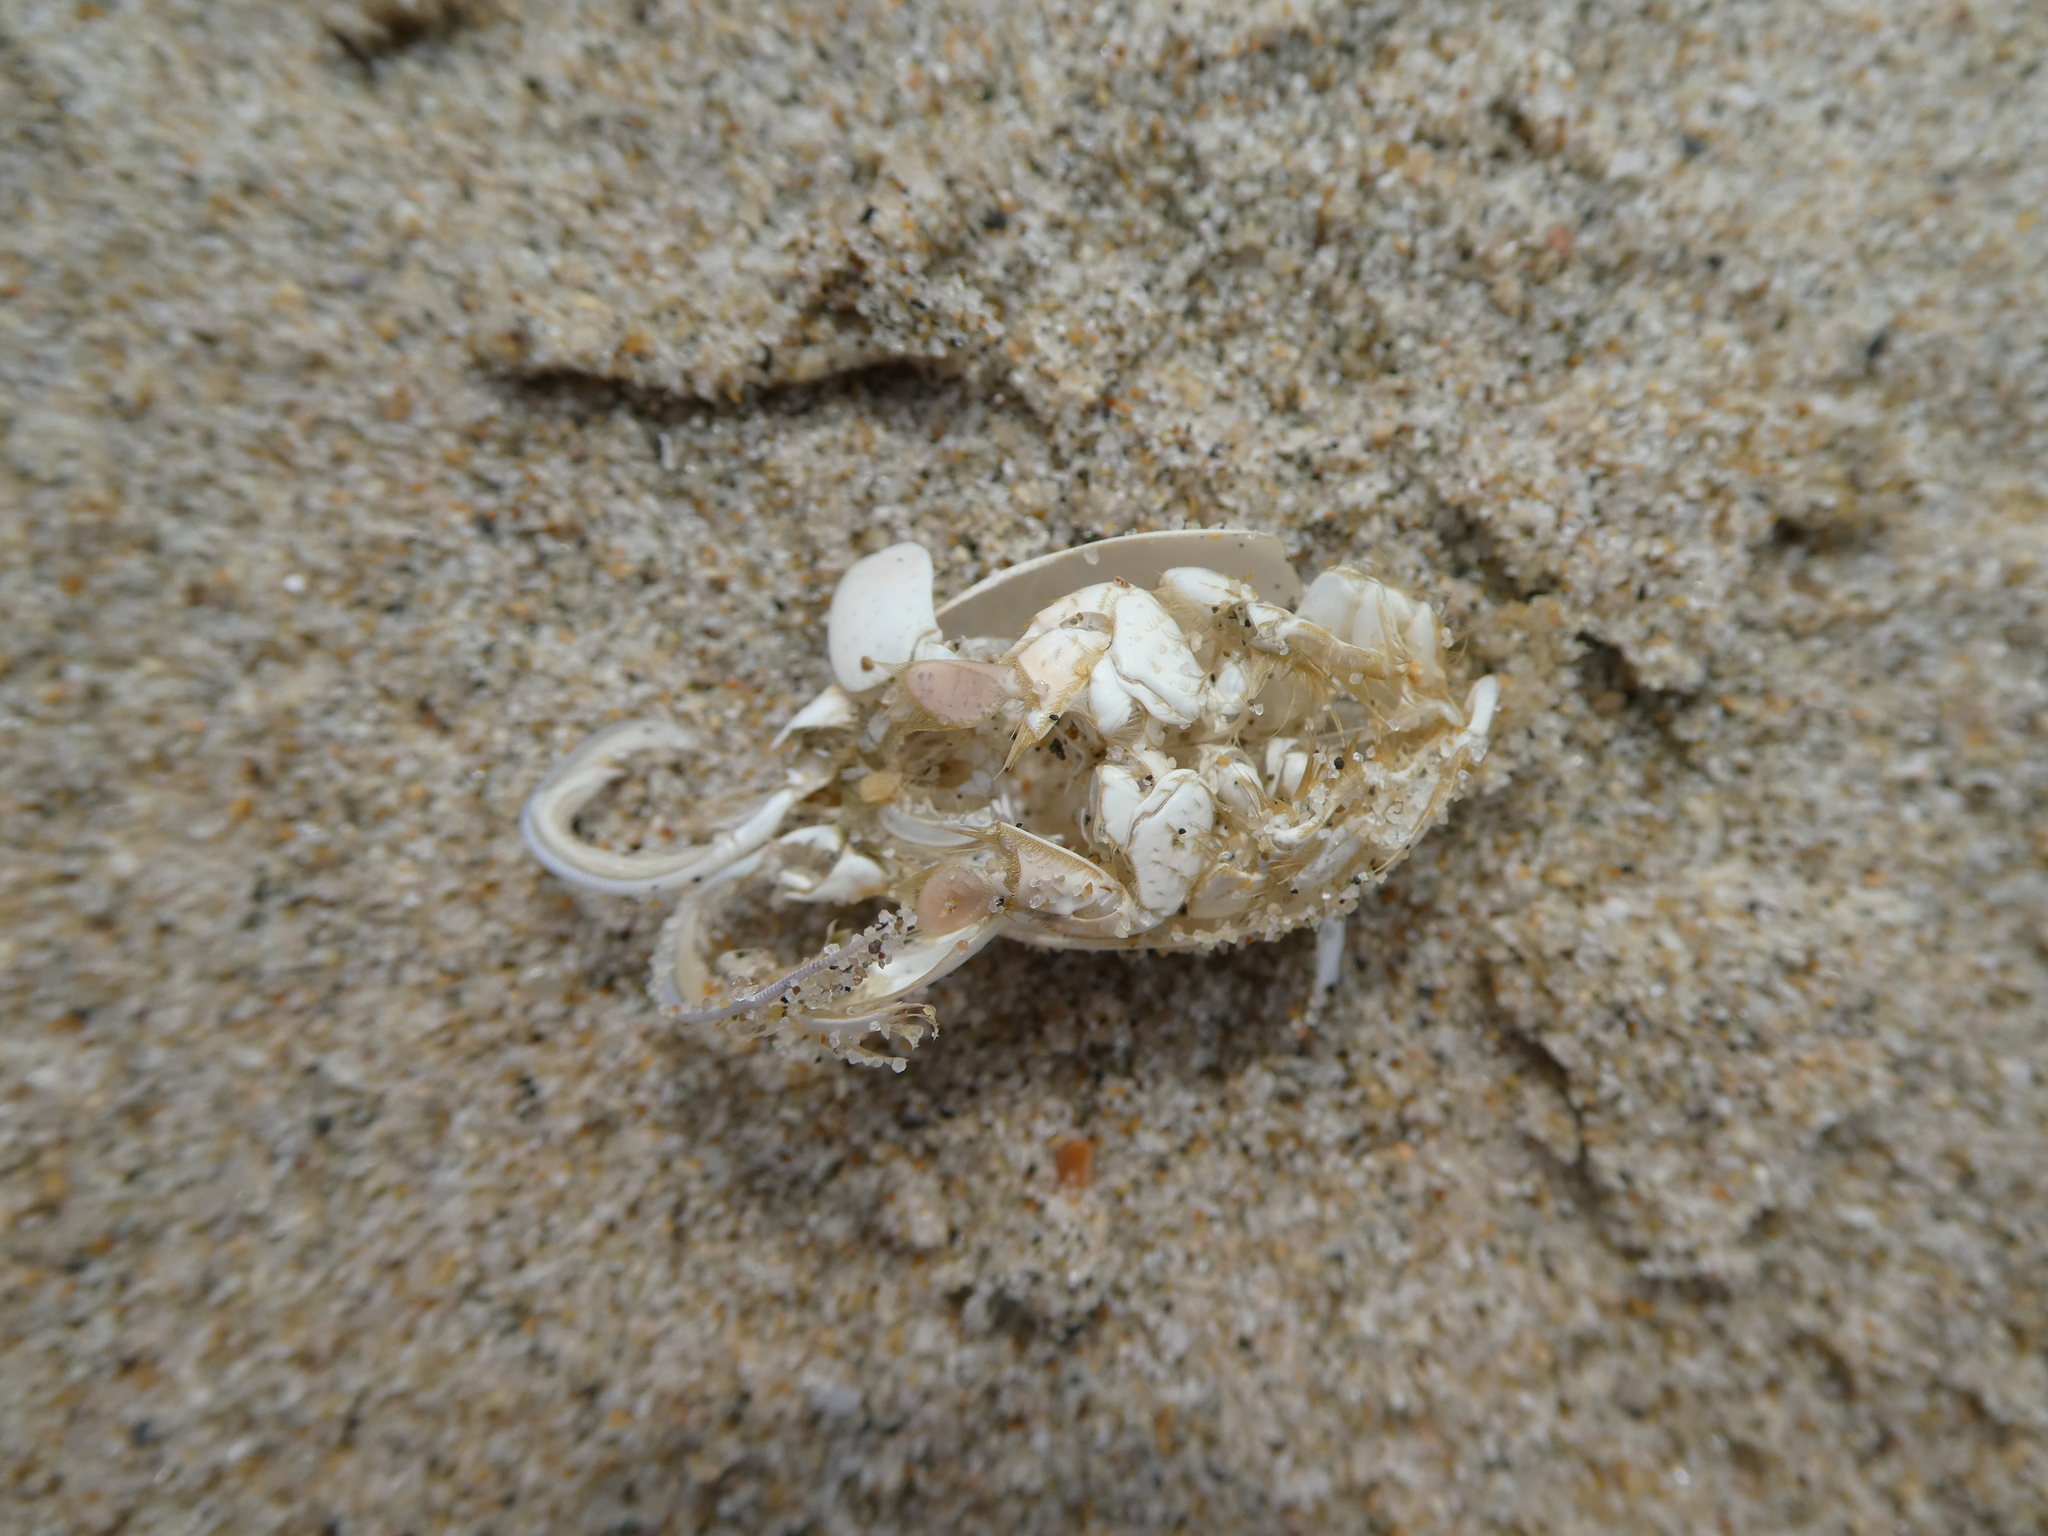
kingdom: Animalia
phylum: Arthropoda
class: Malacostraca
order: Decapoda
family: Hippidae
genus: Emerita
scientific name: Emerita analoga
